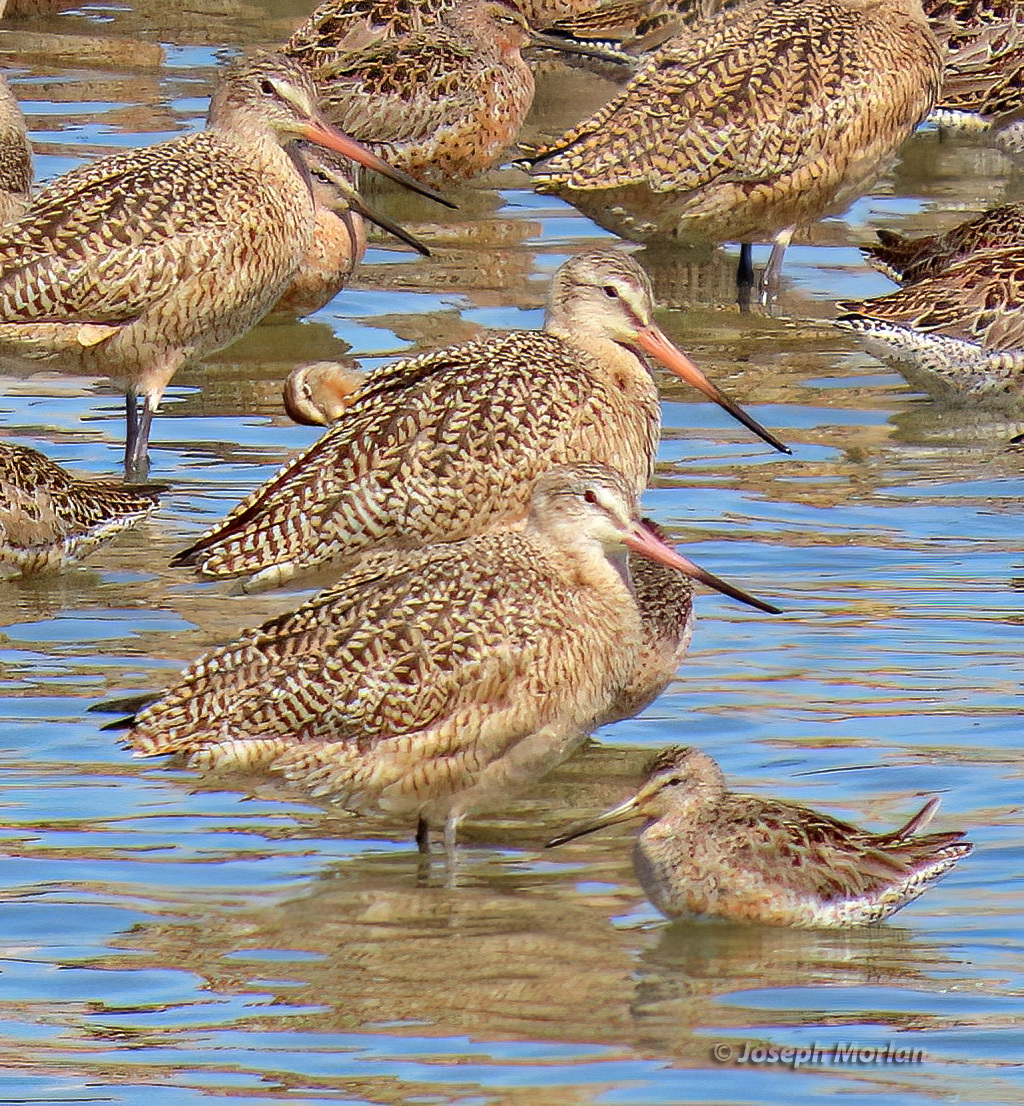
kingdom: Animalia
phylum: Chordata
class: Aves
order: Charadriiformes
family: Scolopacidae
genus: Limosa
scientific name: Limosa fedoa
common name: Marbled godwit
